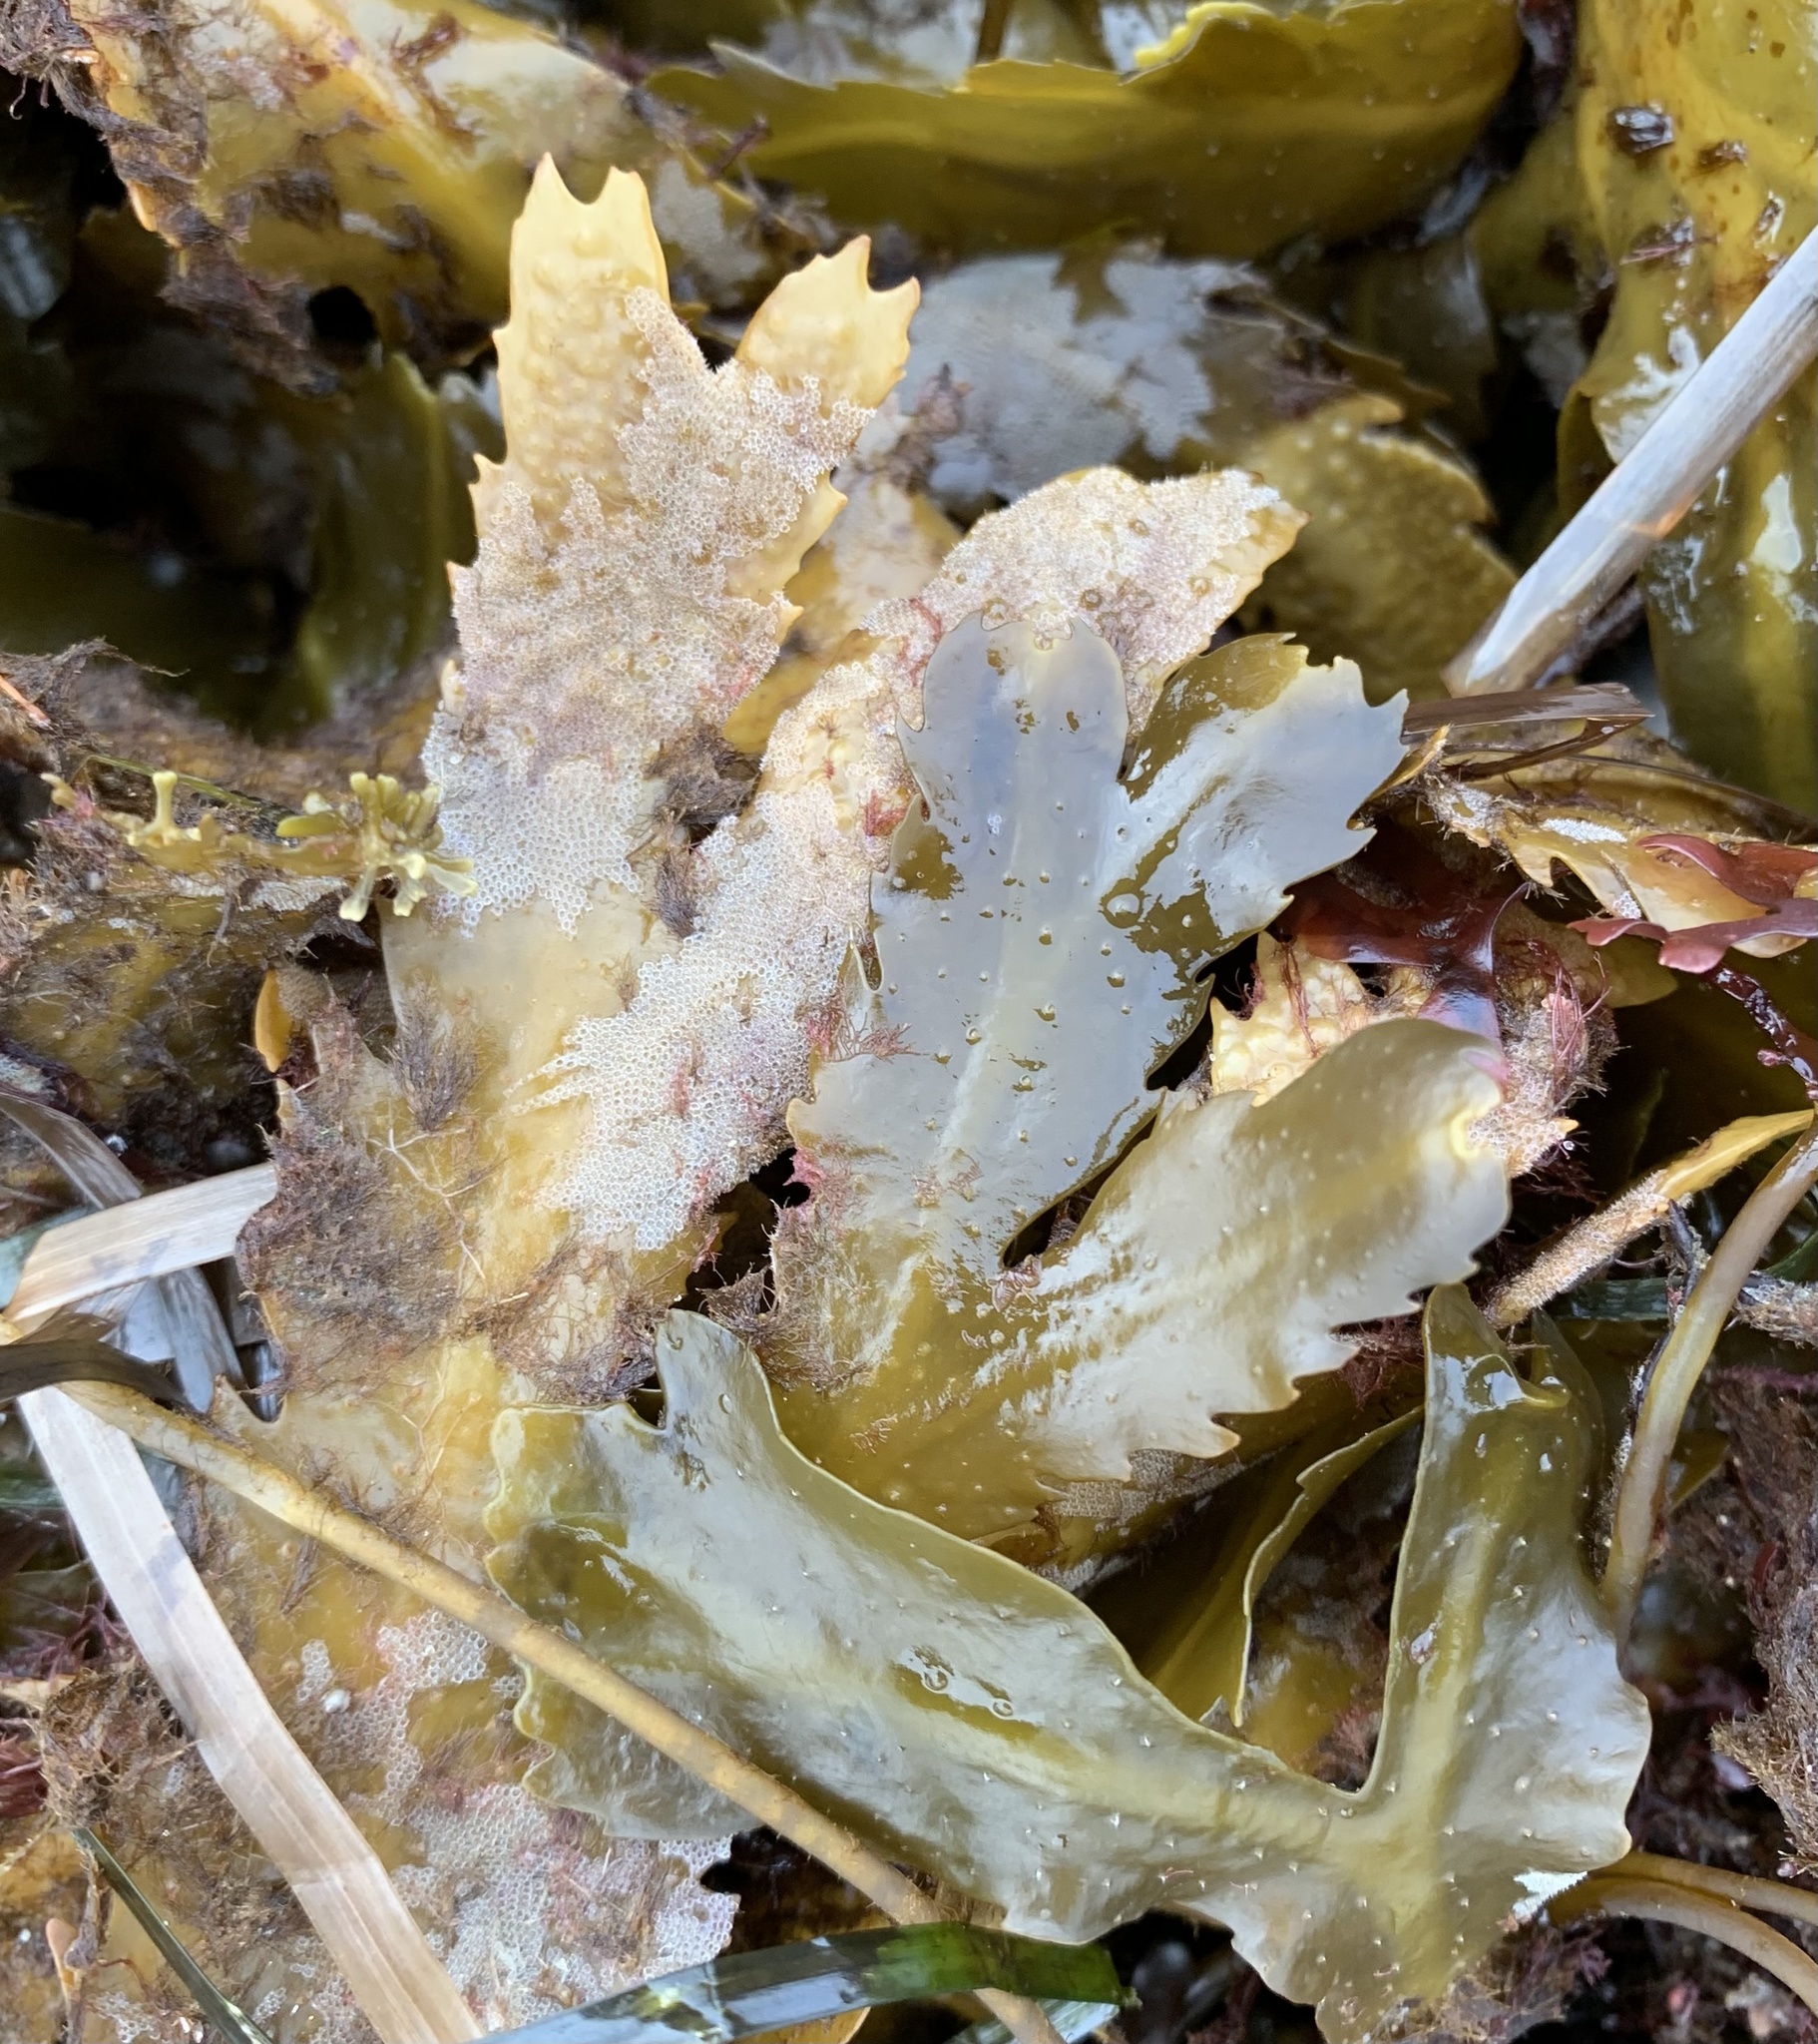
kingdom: Chromista
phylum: Ochrophyta
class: Phaeophyceae
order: Fucales
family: Fucaceae
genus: Fucus
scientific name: Fucus serratus
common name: Toothed wrack
